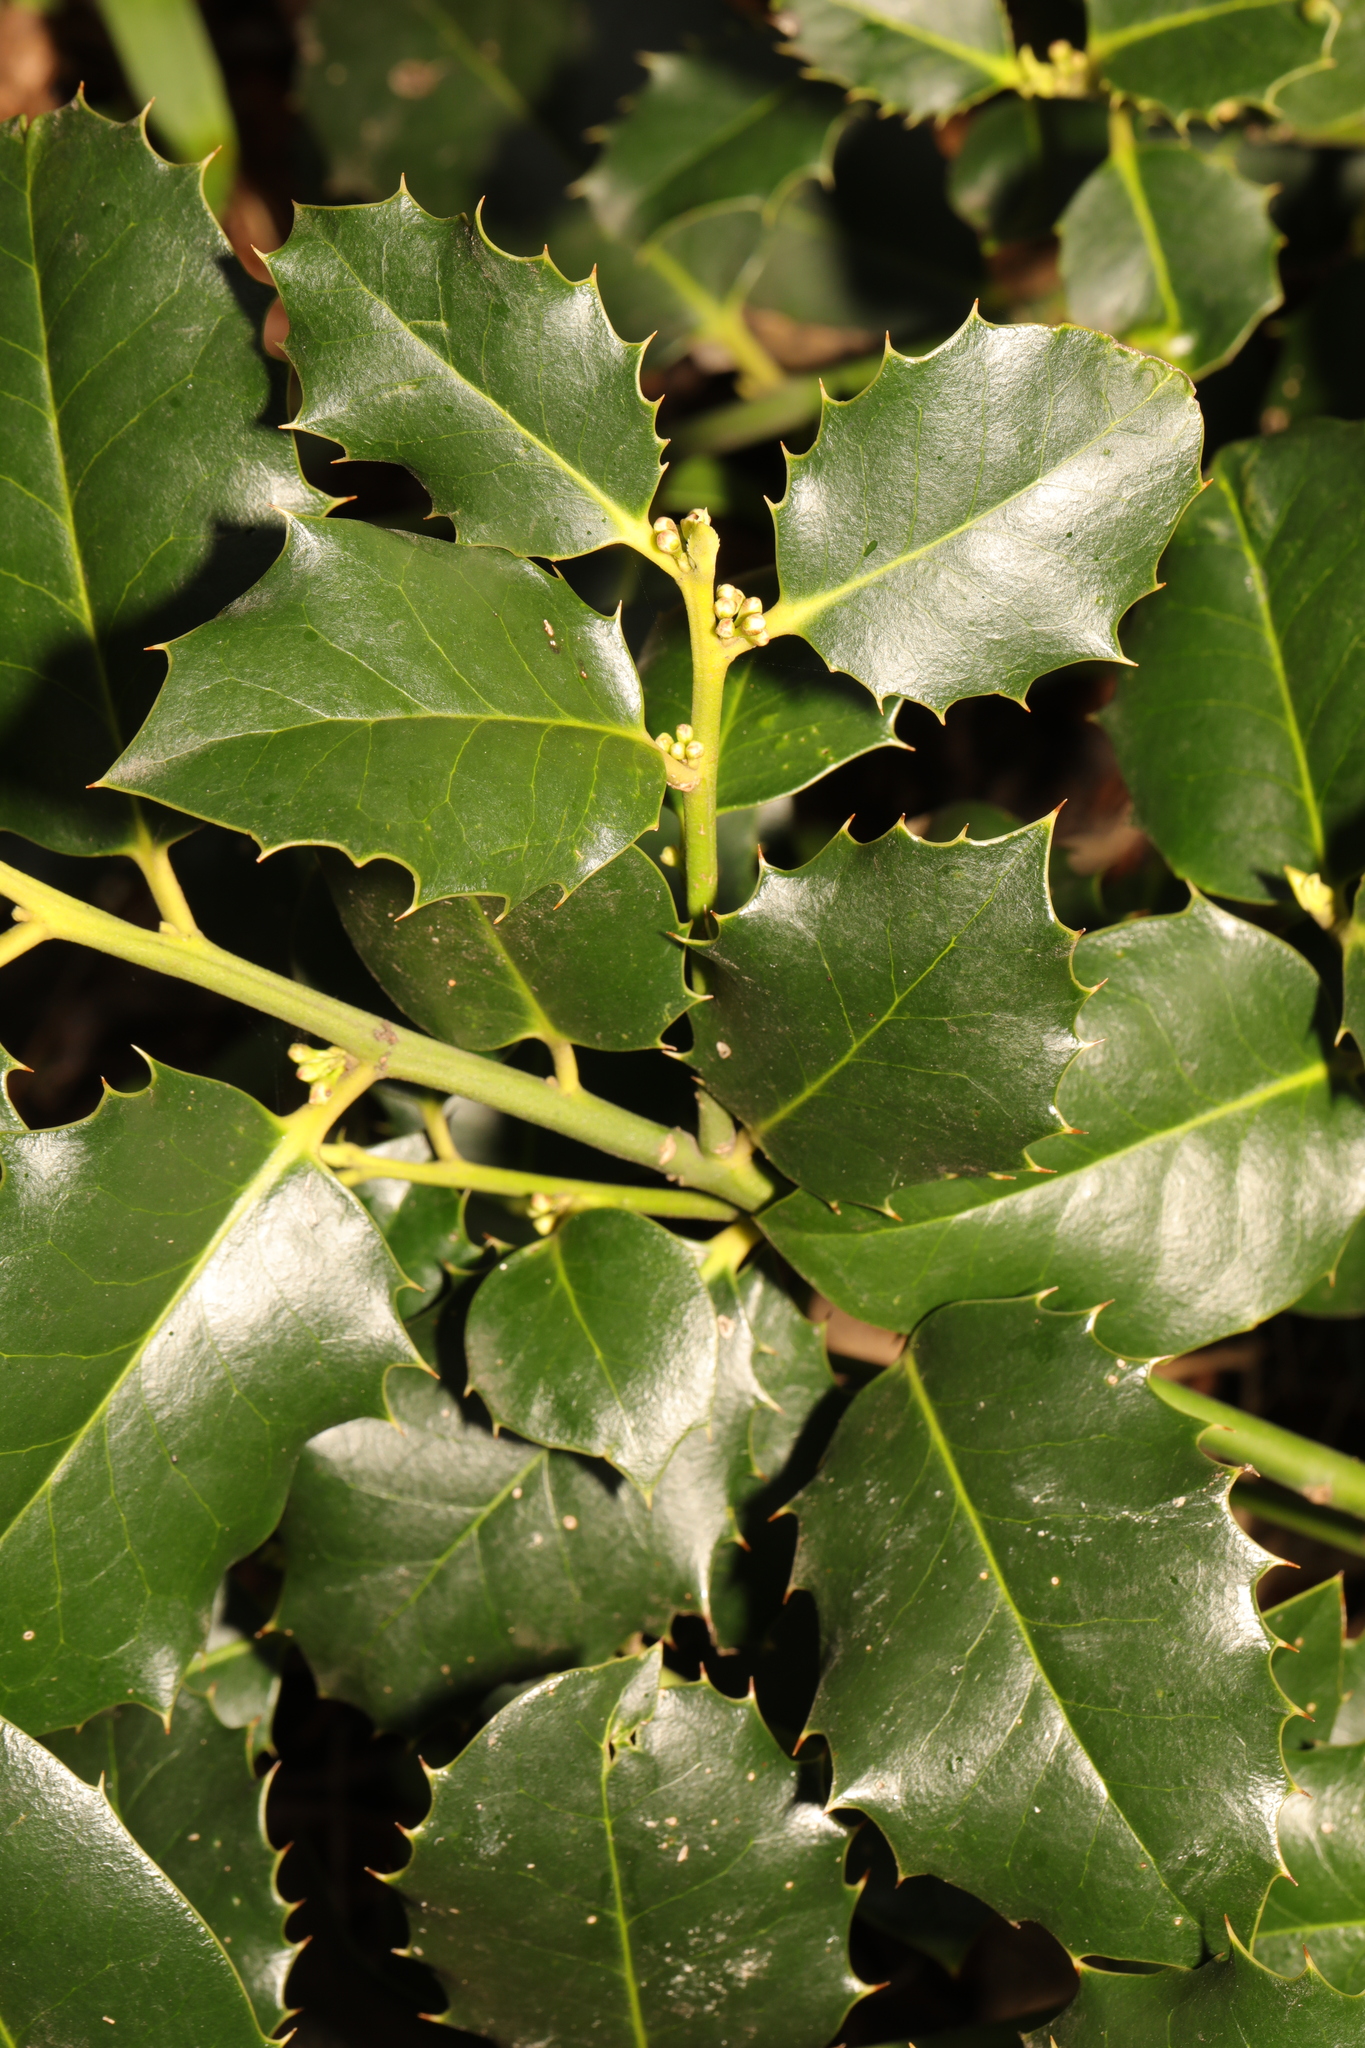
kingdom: Plantae
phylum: Tracheophyta
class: Magnoliopsida
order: Aquifoliales
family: Aquifoliaceae
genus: Ilex
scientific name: Ilex aquifolium
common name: English holly
